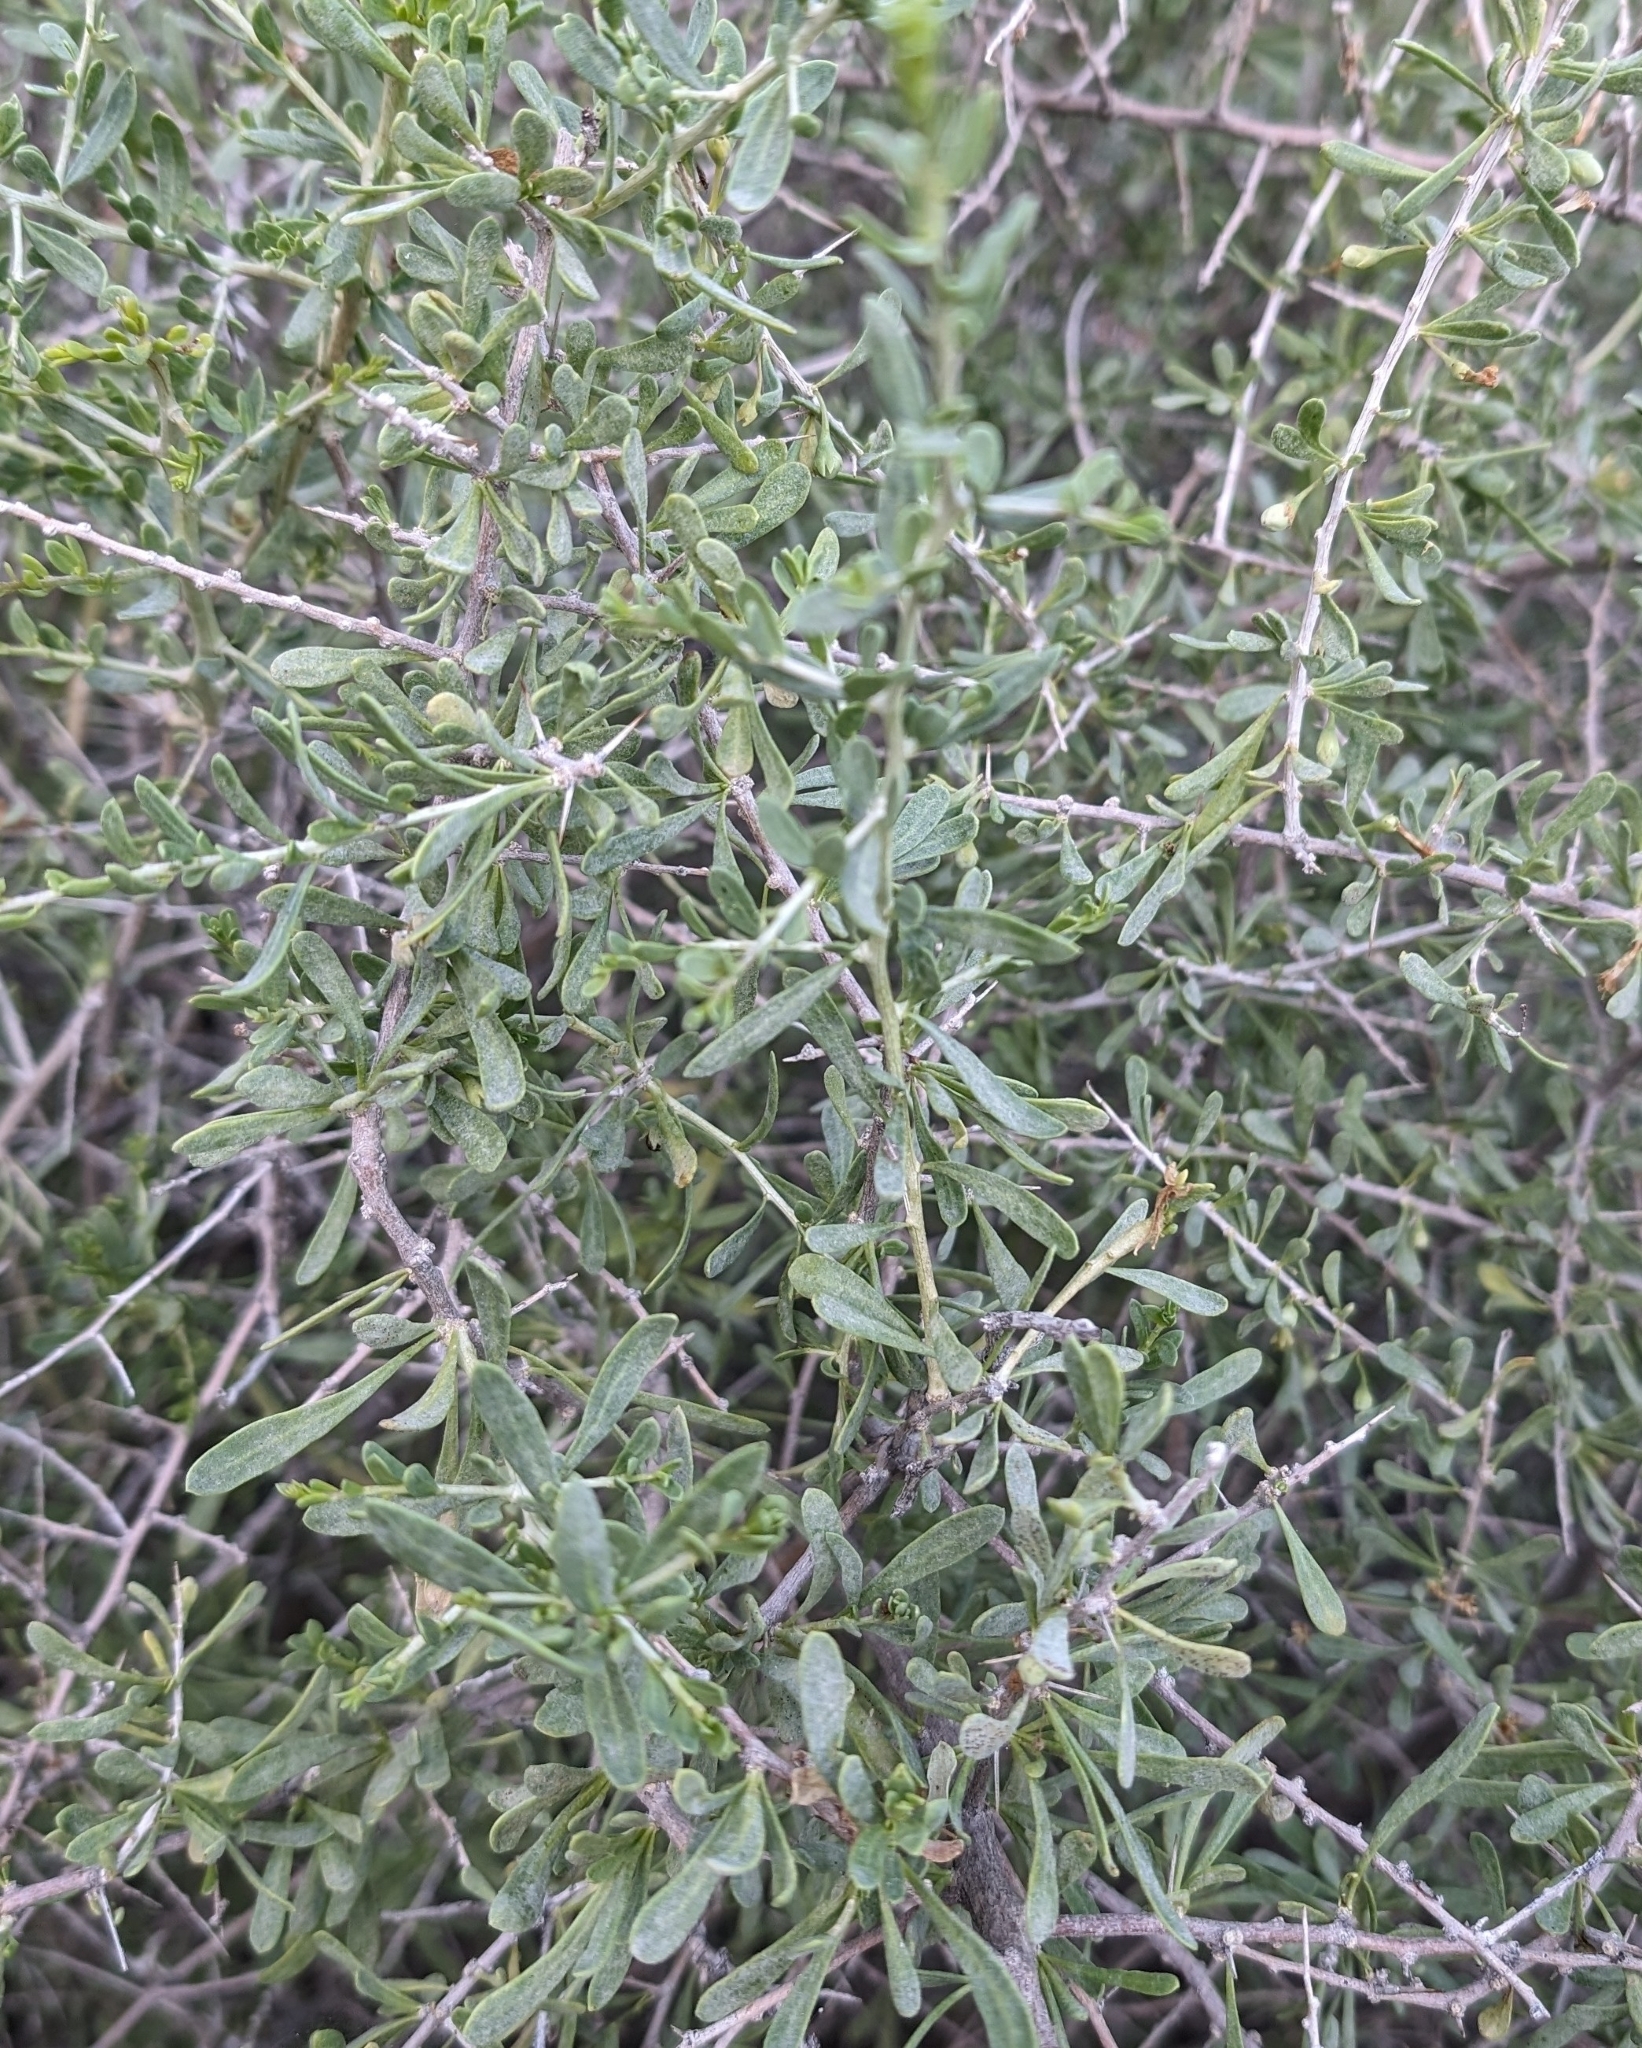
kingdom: Plantae
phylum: Tracheophyta
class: Magnoliopsida
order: Solanales
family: Solanaceae
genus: Lycium
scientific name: Lycium andersonii
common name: Water-jacket
